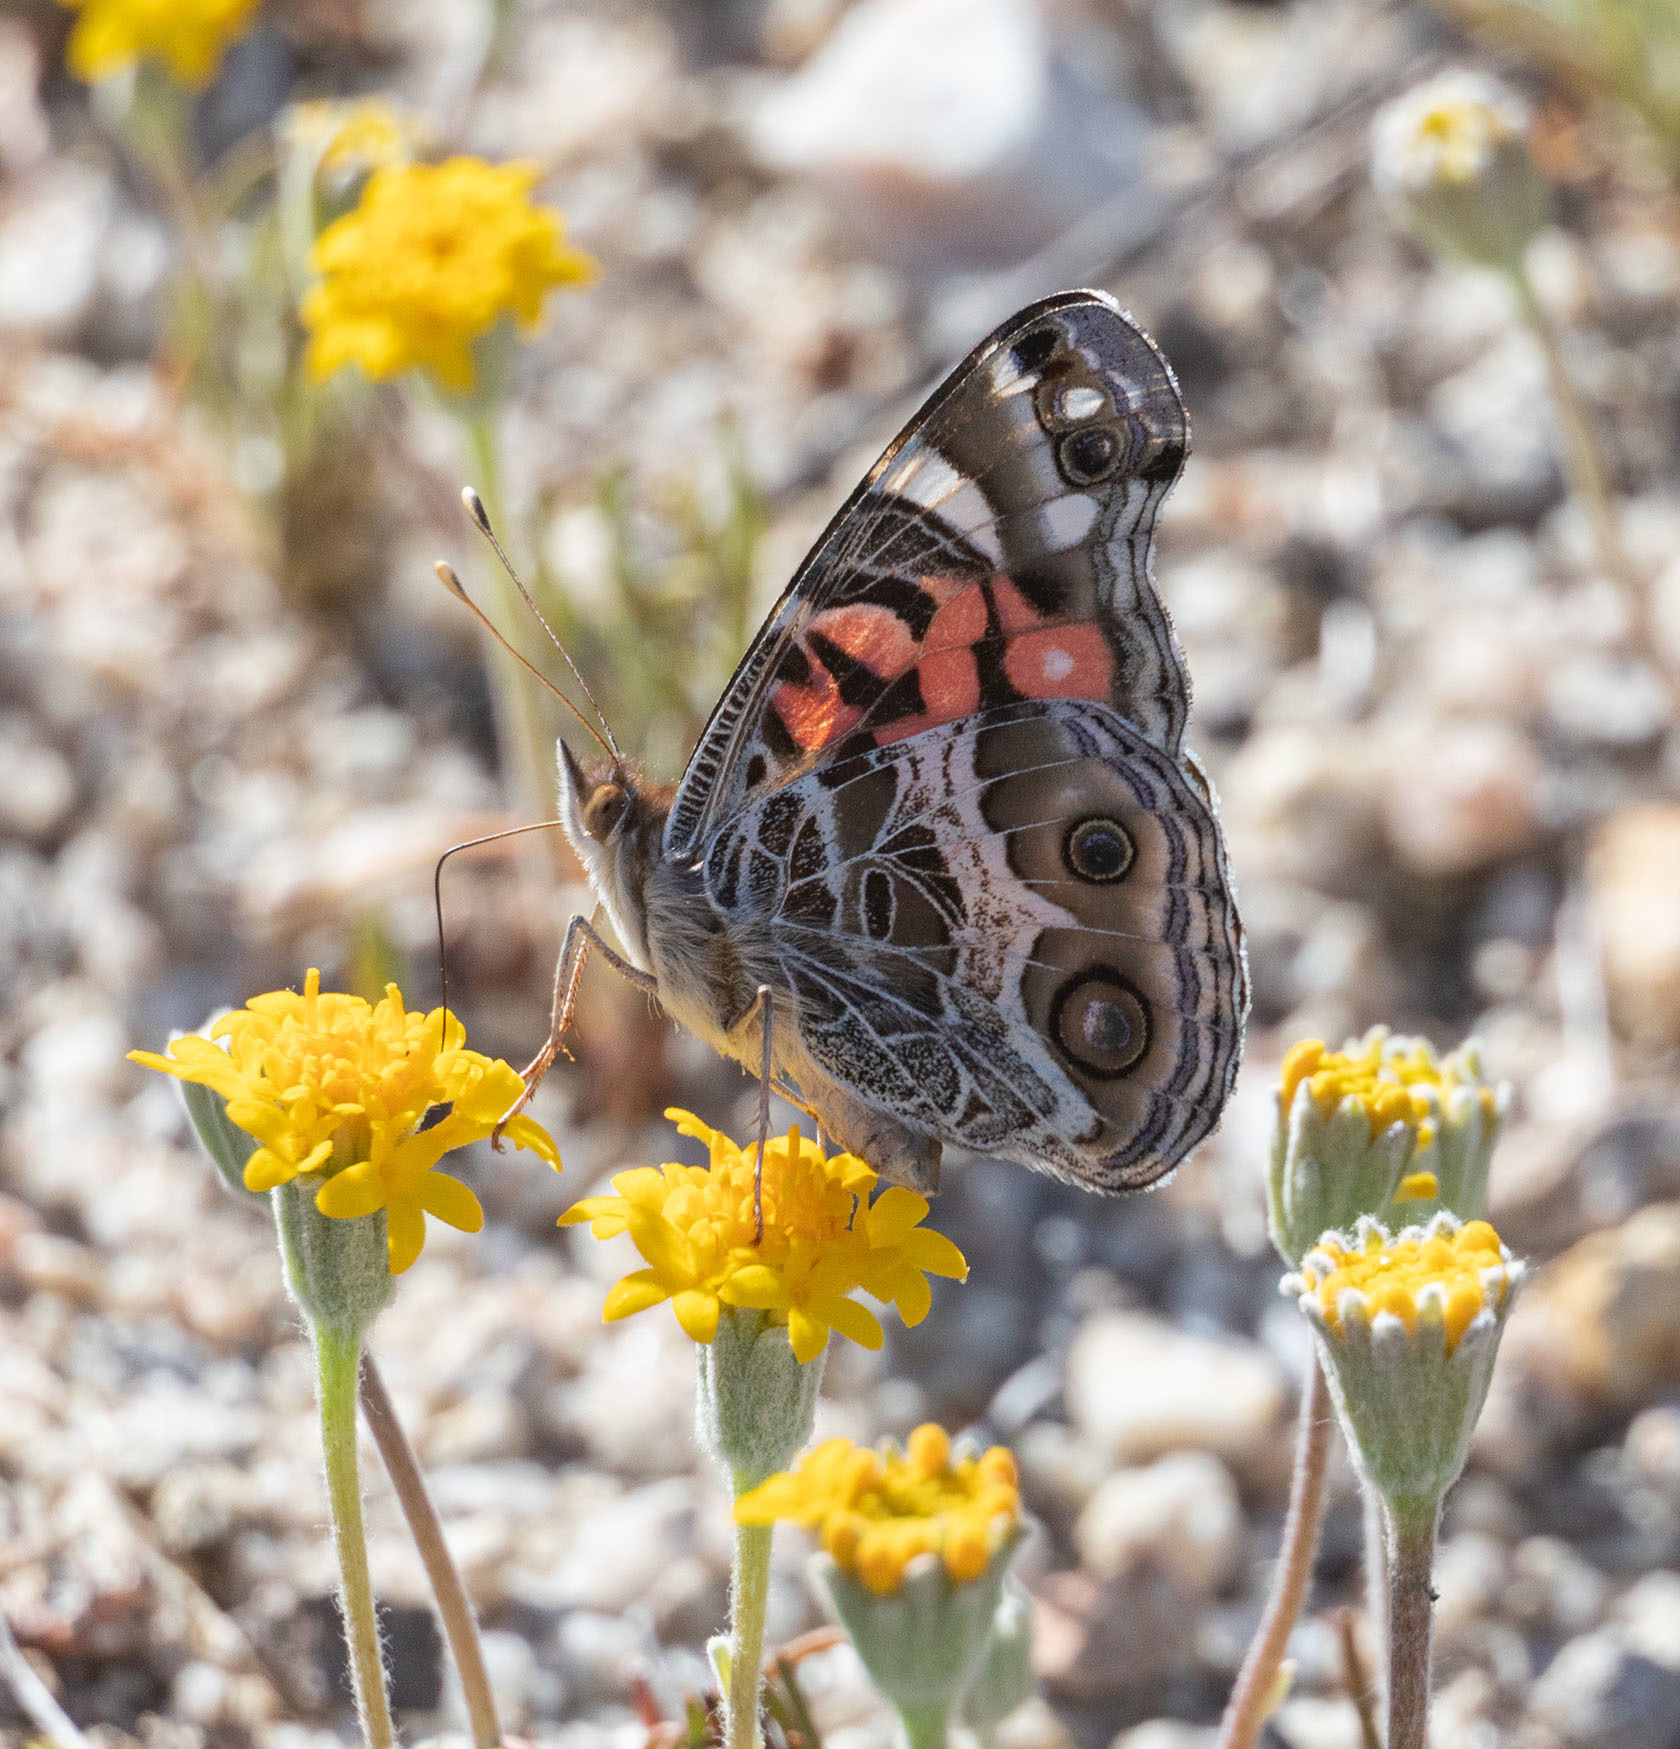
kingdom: Animalia
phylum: Arthropoda
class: Insecta
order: Lepidoptera
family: Nymphalidae
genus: Vanessa
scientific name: Vanessa virginiensis
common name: American lady
